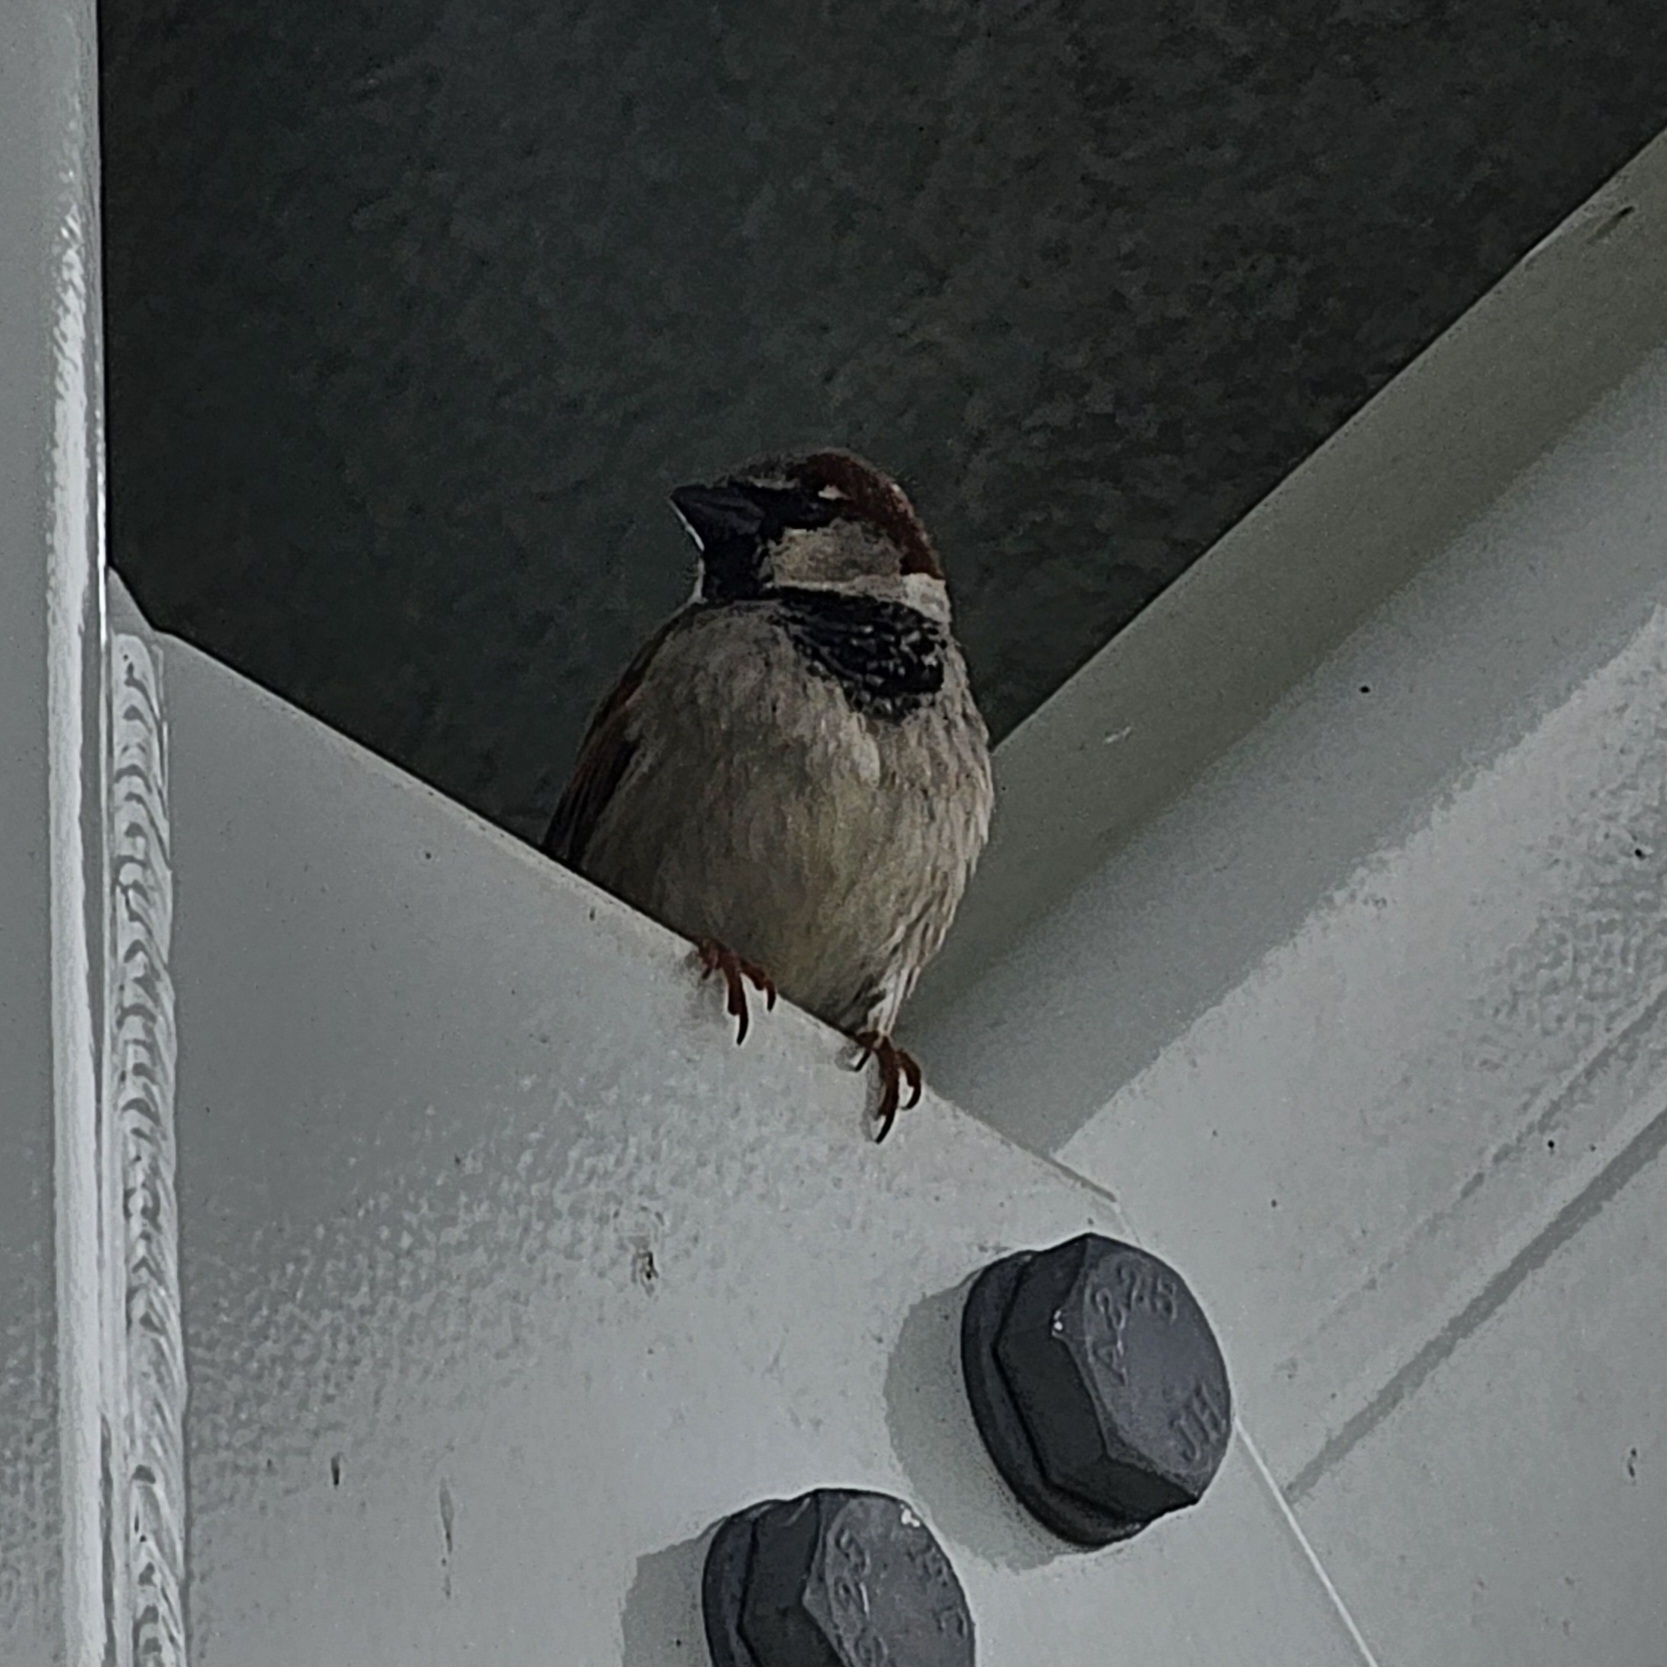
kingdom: Animalia
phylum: Chordata
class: Aves
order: Passeriformes
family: Passeridae
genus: Passer
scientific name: Passer domesticus
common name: House sparrow
